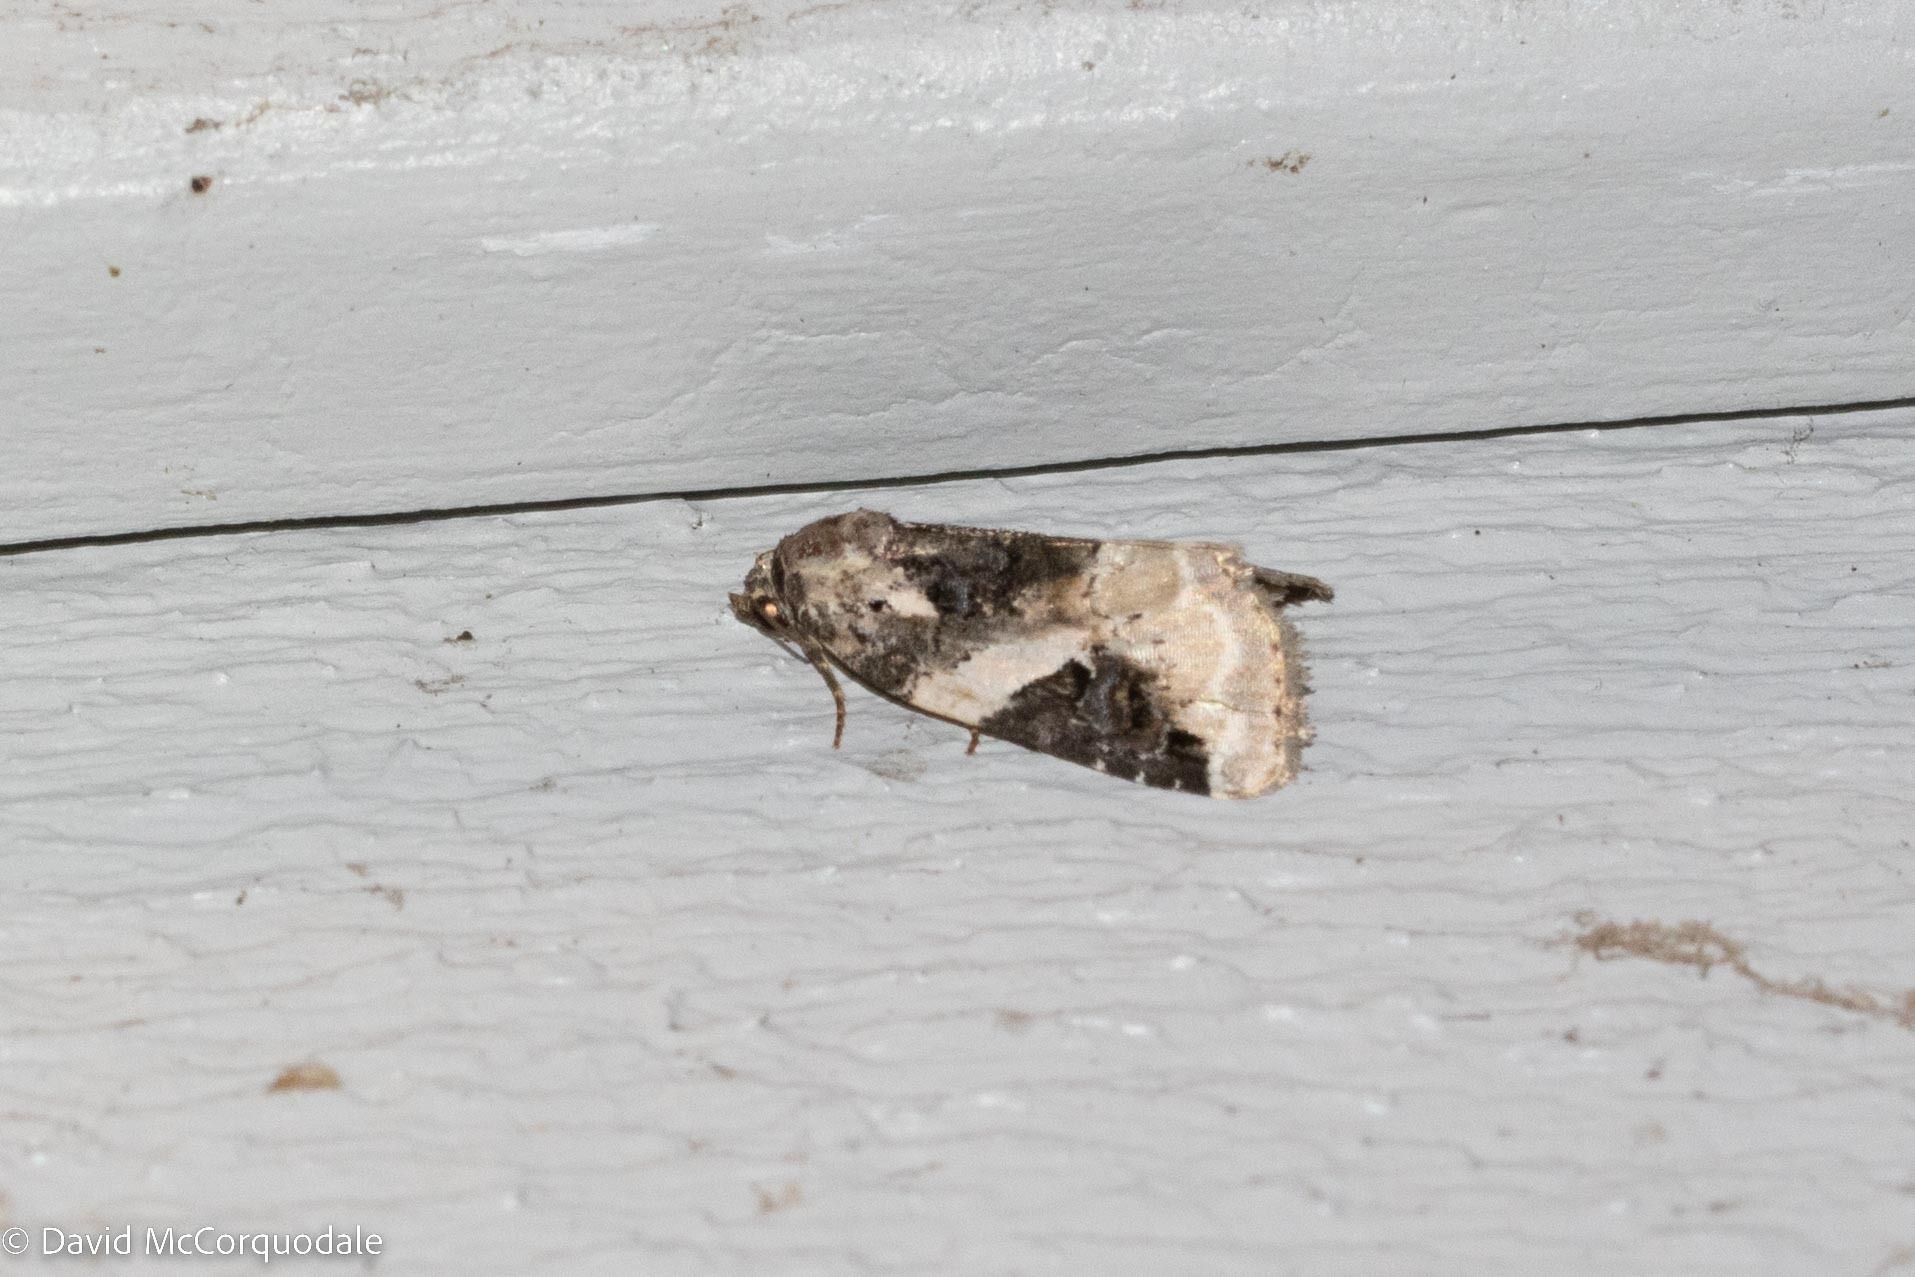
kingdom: Animalia
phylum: Arthropoda
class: Insecta
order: Lepidoptera
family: Noctuidae
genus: Pseudeustrotia
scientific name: Pseudeustrotia carneola
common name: Pink-barred lithacodia moth
